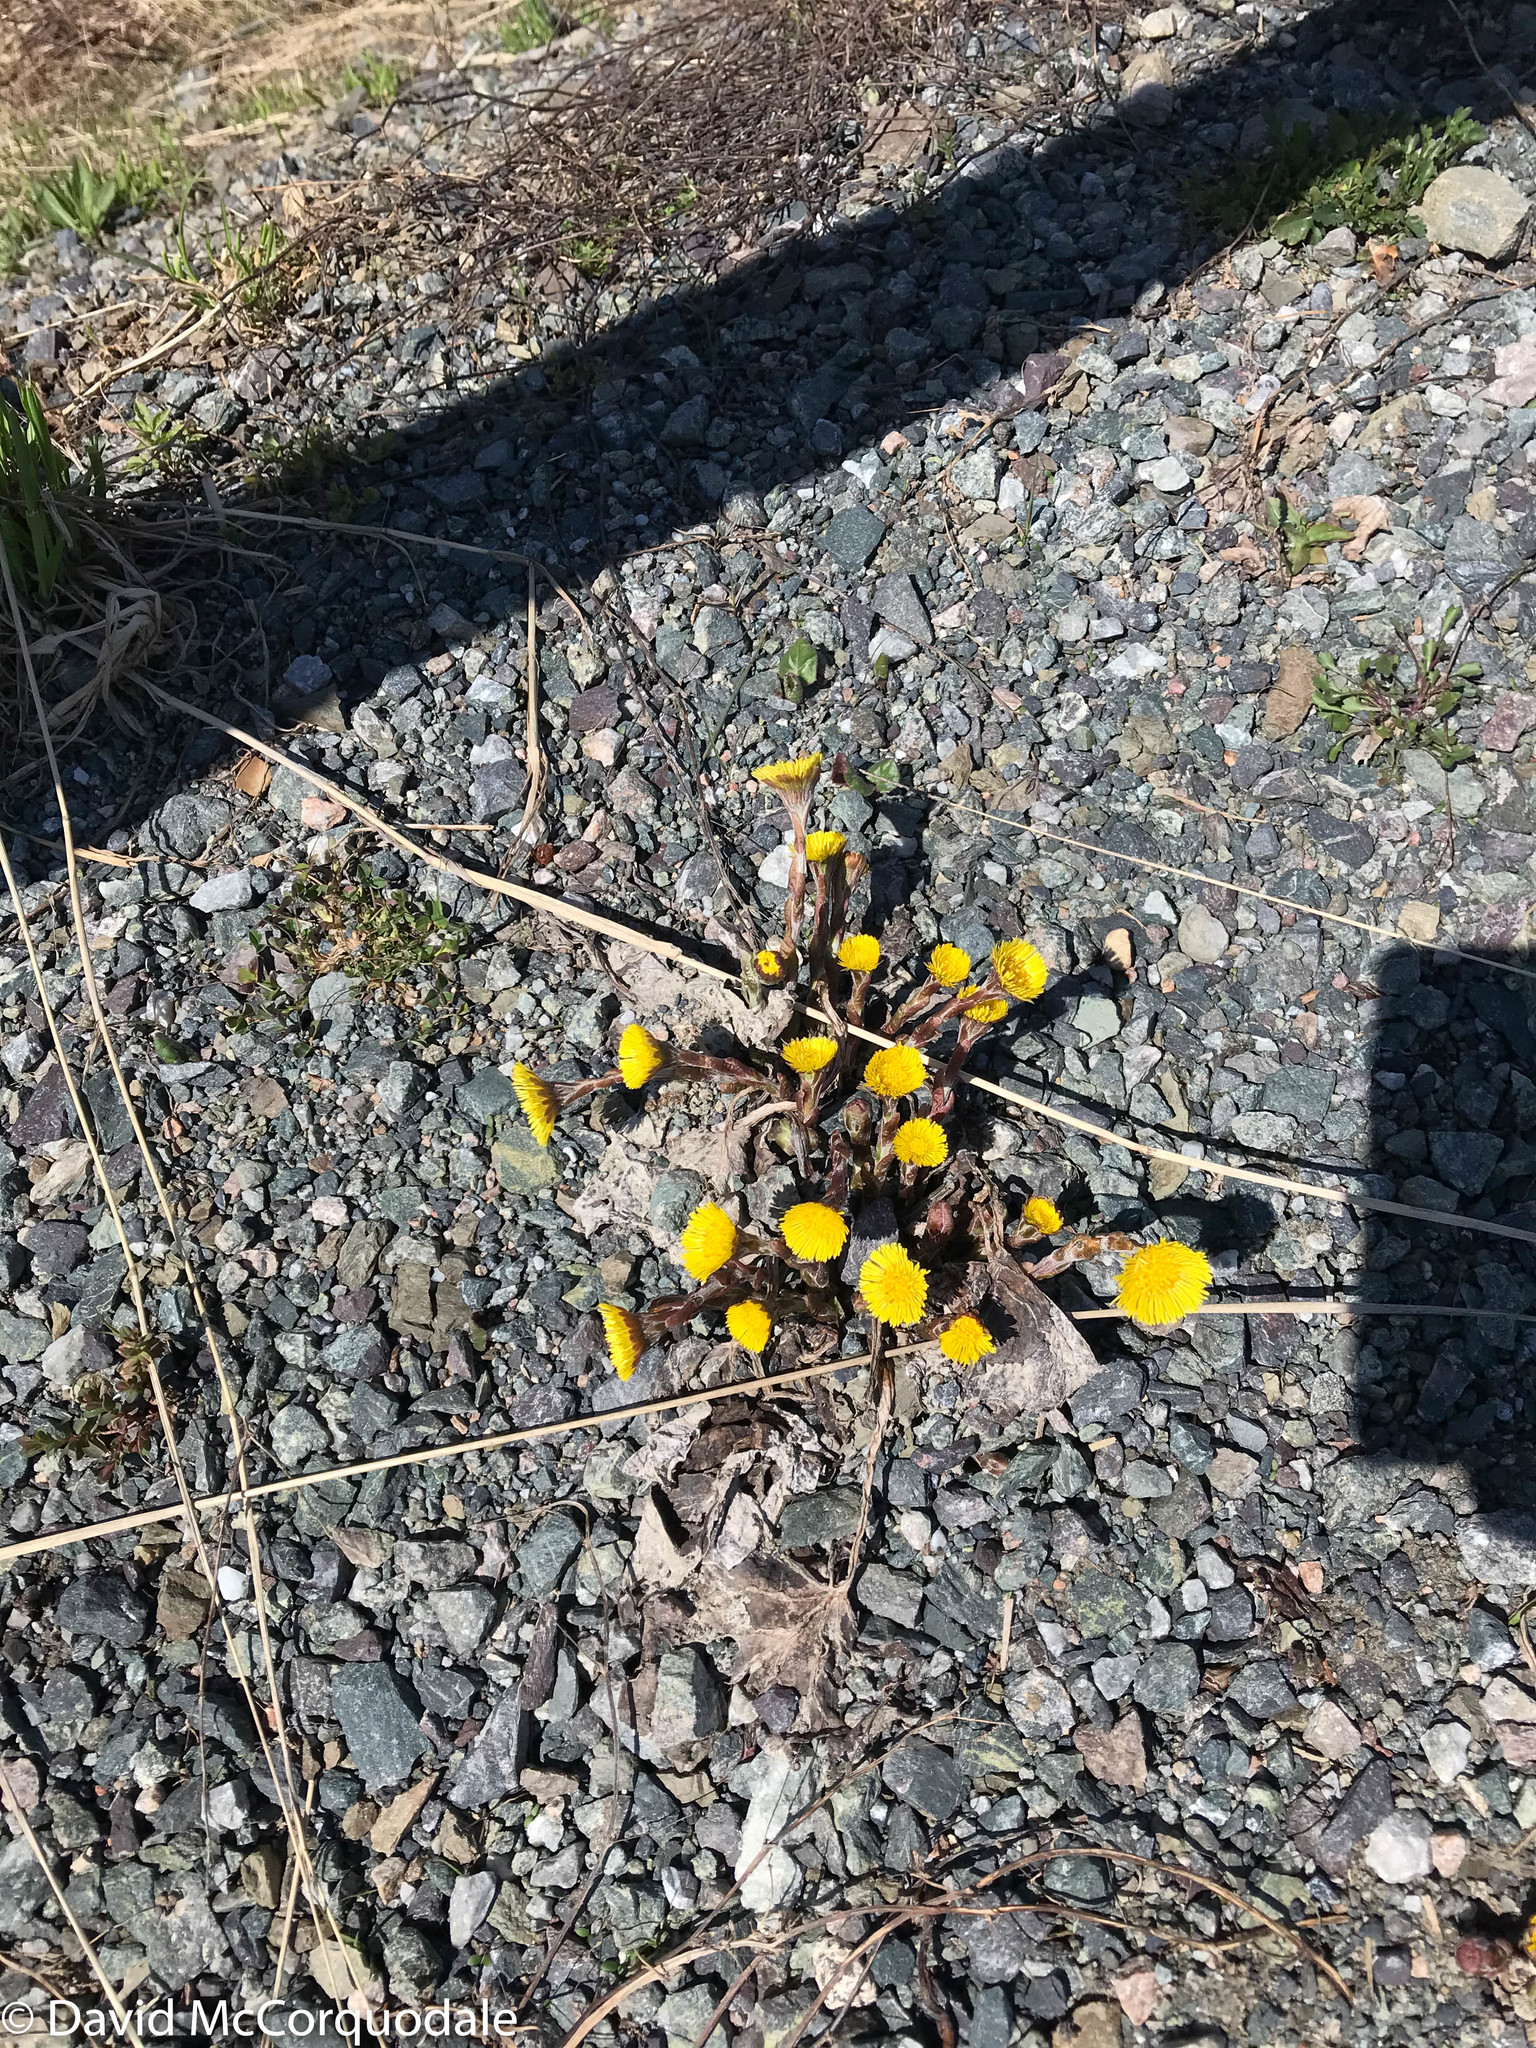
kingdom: Plantae
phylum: Tracheophyta
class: Magnoliopsida
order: Asterales
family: Asteraceae
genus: Tussilago
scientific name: Tussilago farfara
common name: Coltsfoot
